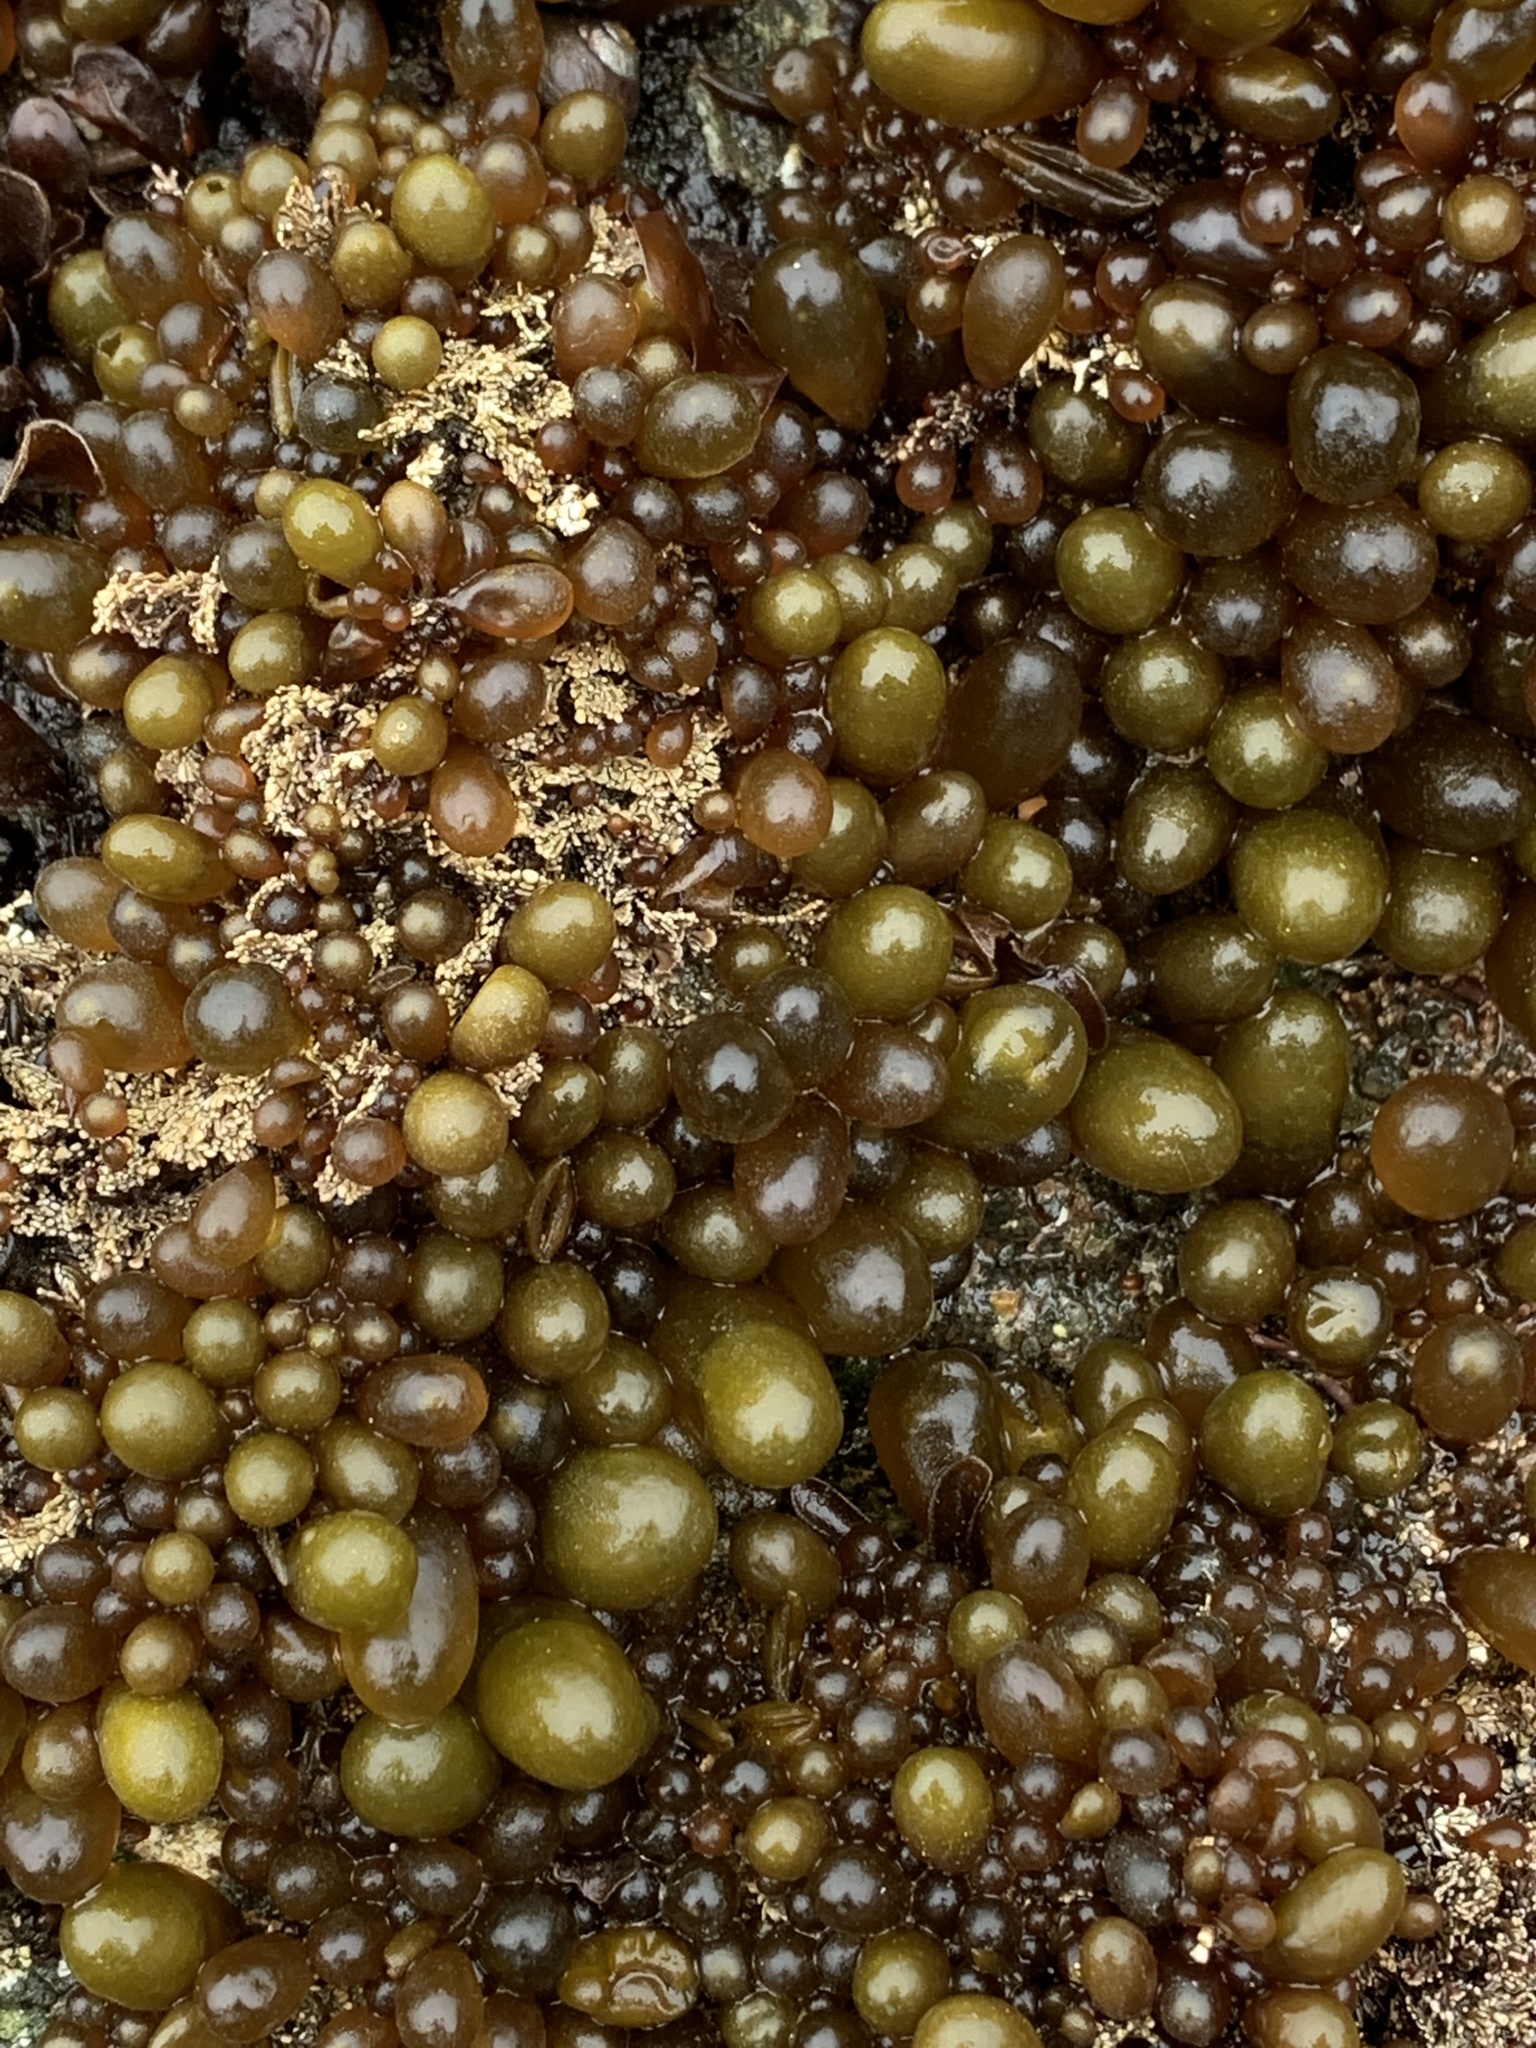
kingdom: Plantae
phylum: Rhodophyta
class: Florideophyceae
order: Palmariales
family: Palmariaceae
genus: Halosaccion
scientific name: Halosaccion glandiforme
